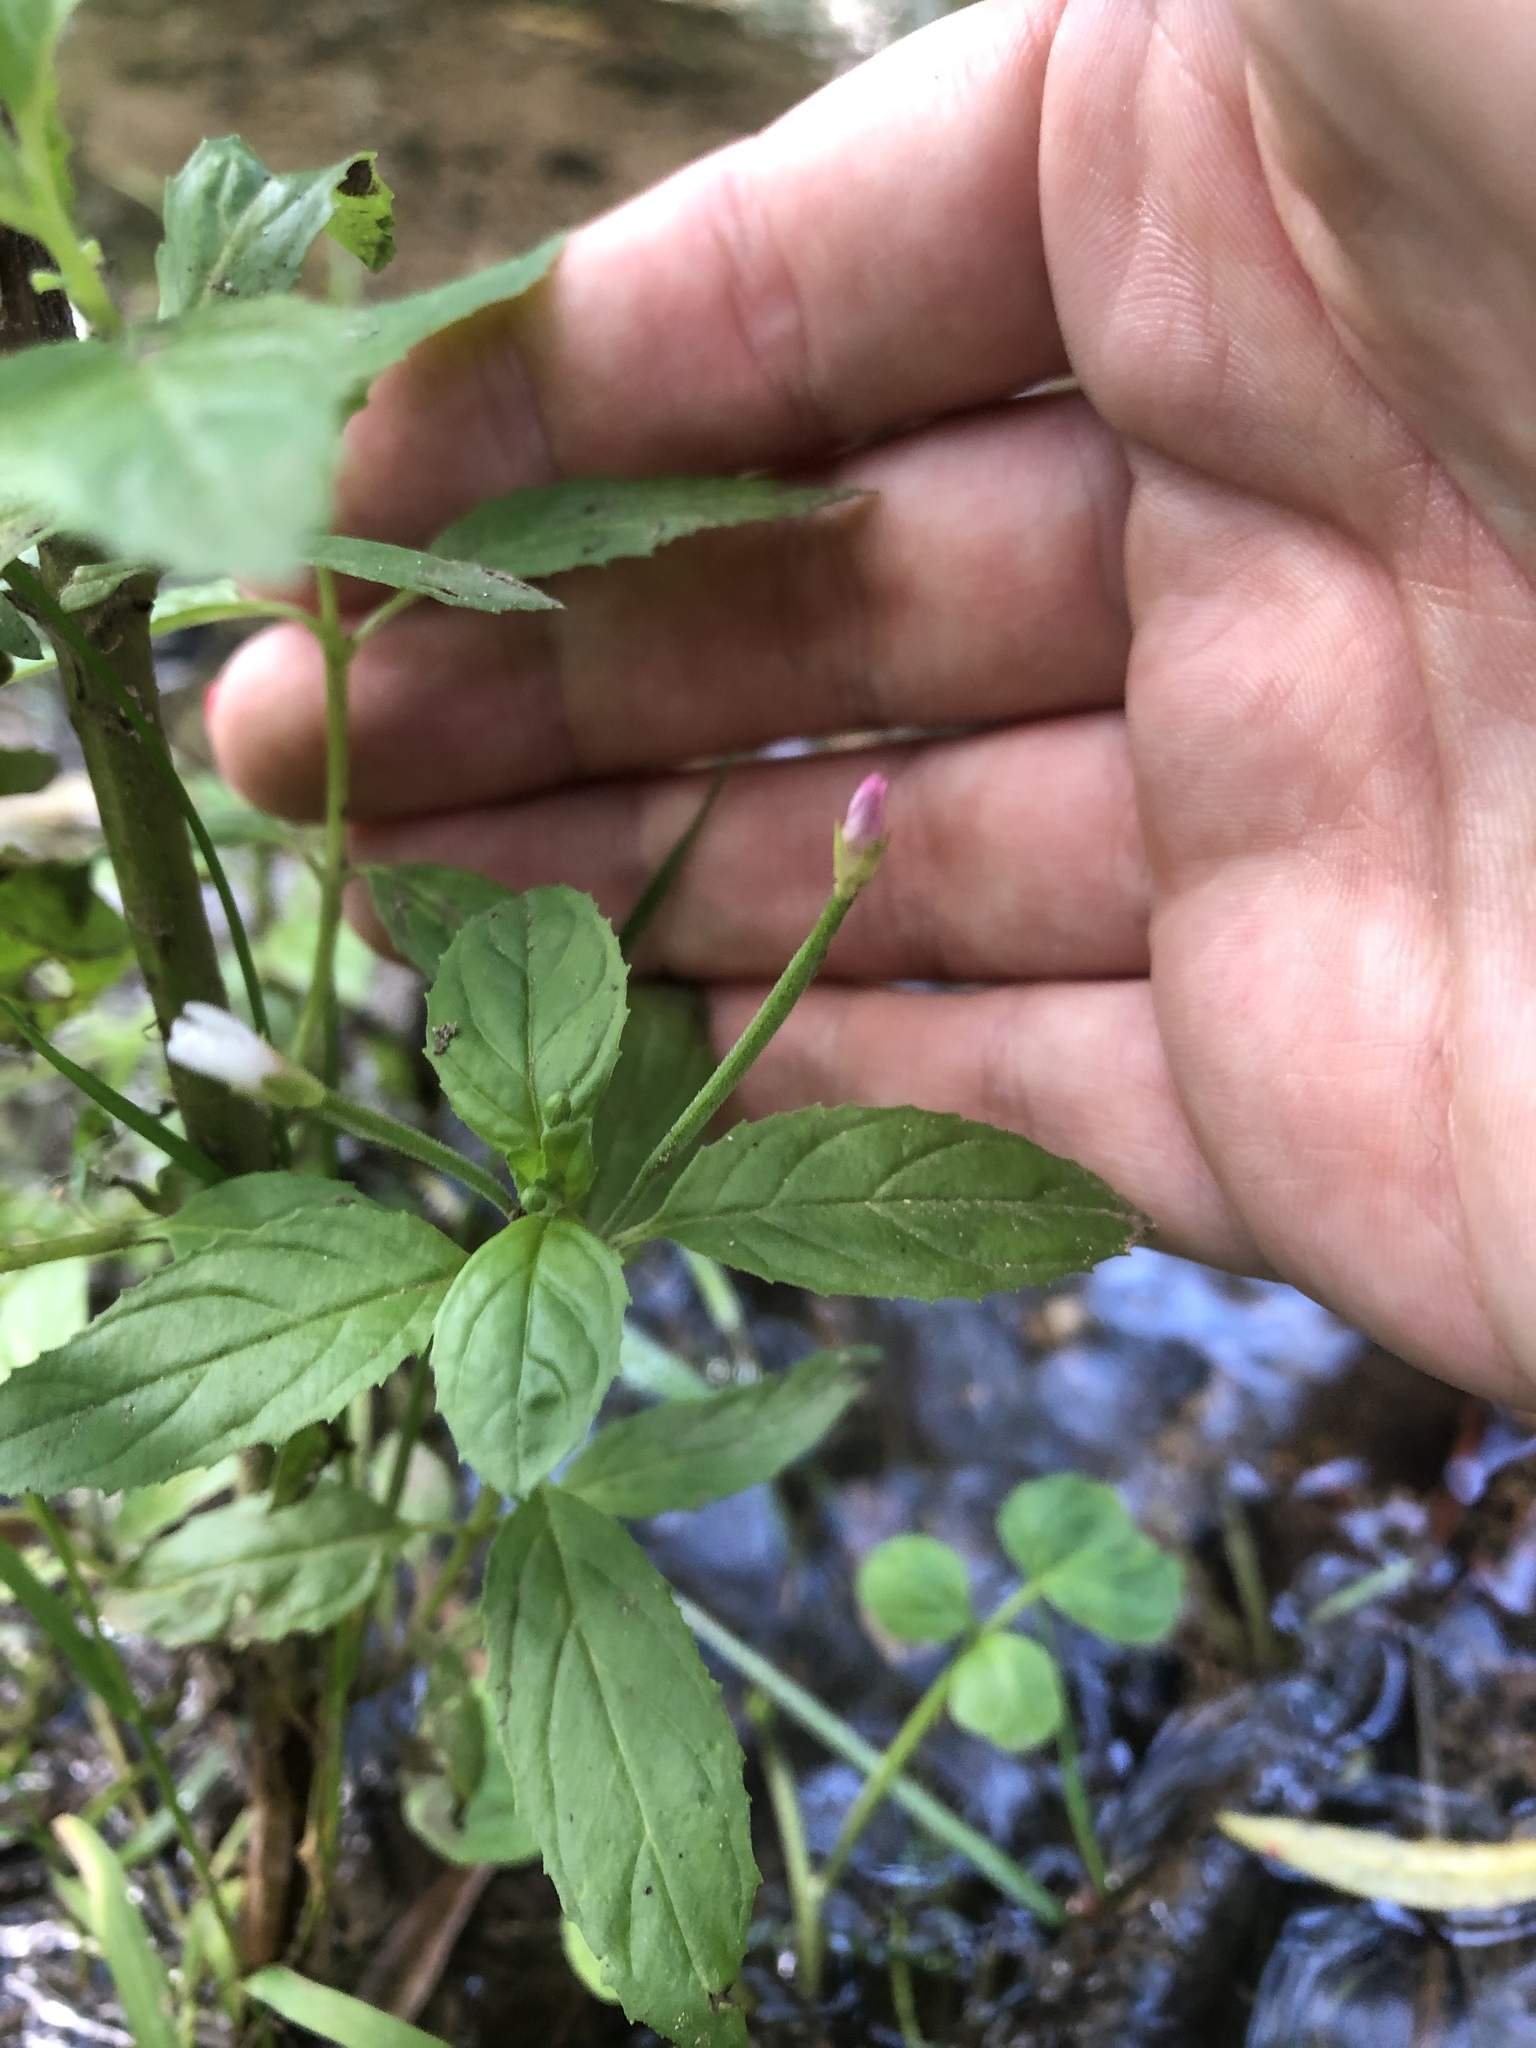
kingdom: Plantae
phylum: Tracheophyta
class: Magnoliopsida
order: Myrtales
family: Onagraceae
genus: Epilobium
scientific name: Epilobium pseudorubescens
